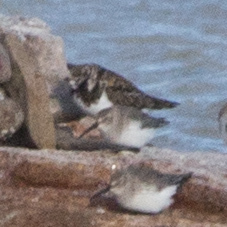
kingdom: Animalia
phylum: Chordata
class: Aves
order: Charadriiformes
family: Scolopacidae
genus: Arenaria
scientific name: Arenaria interpres
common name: Ruddy turnstone
